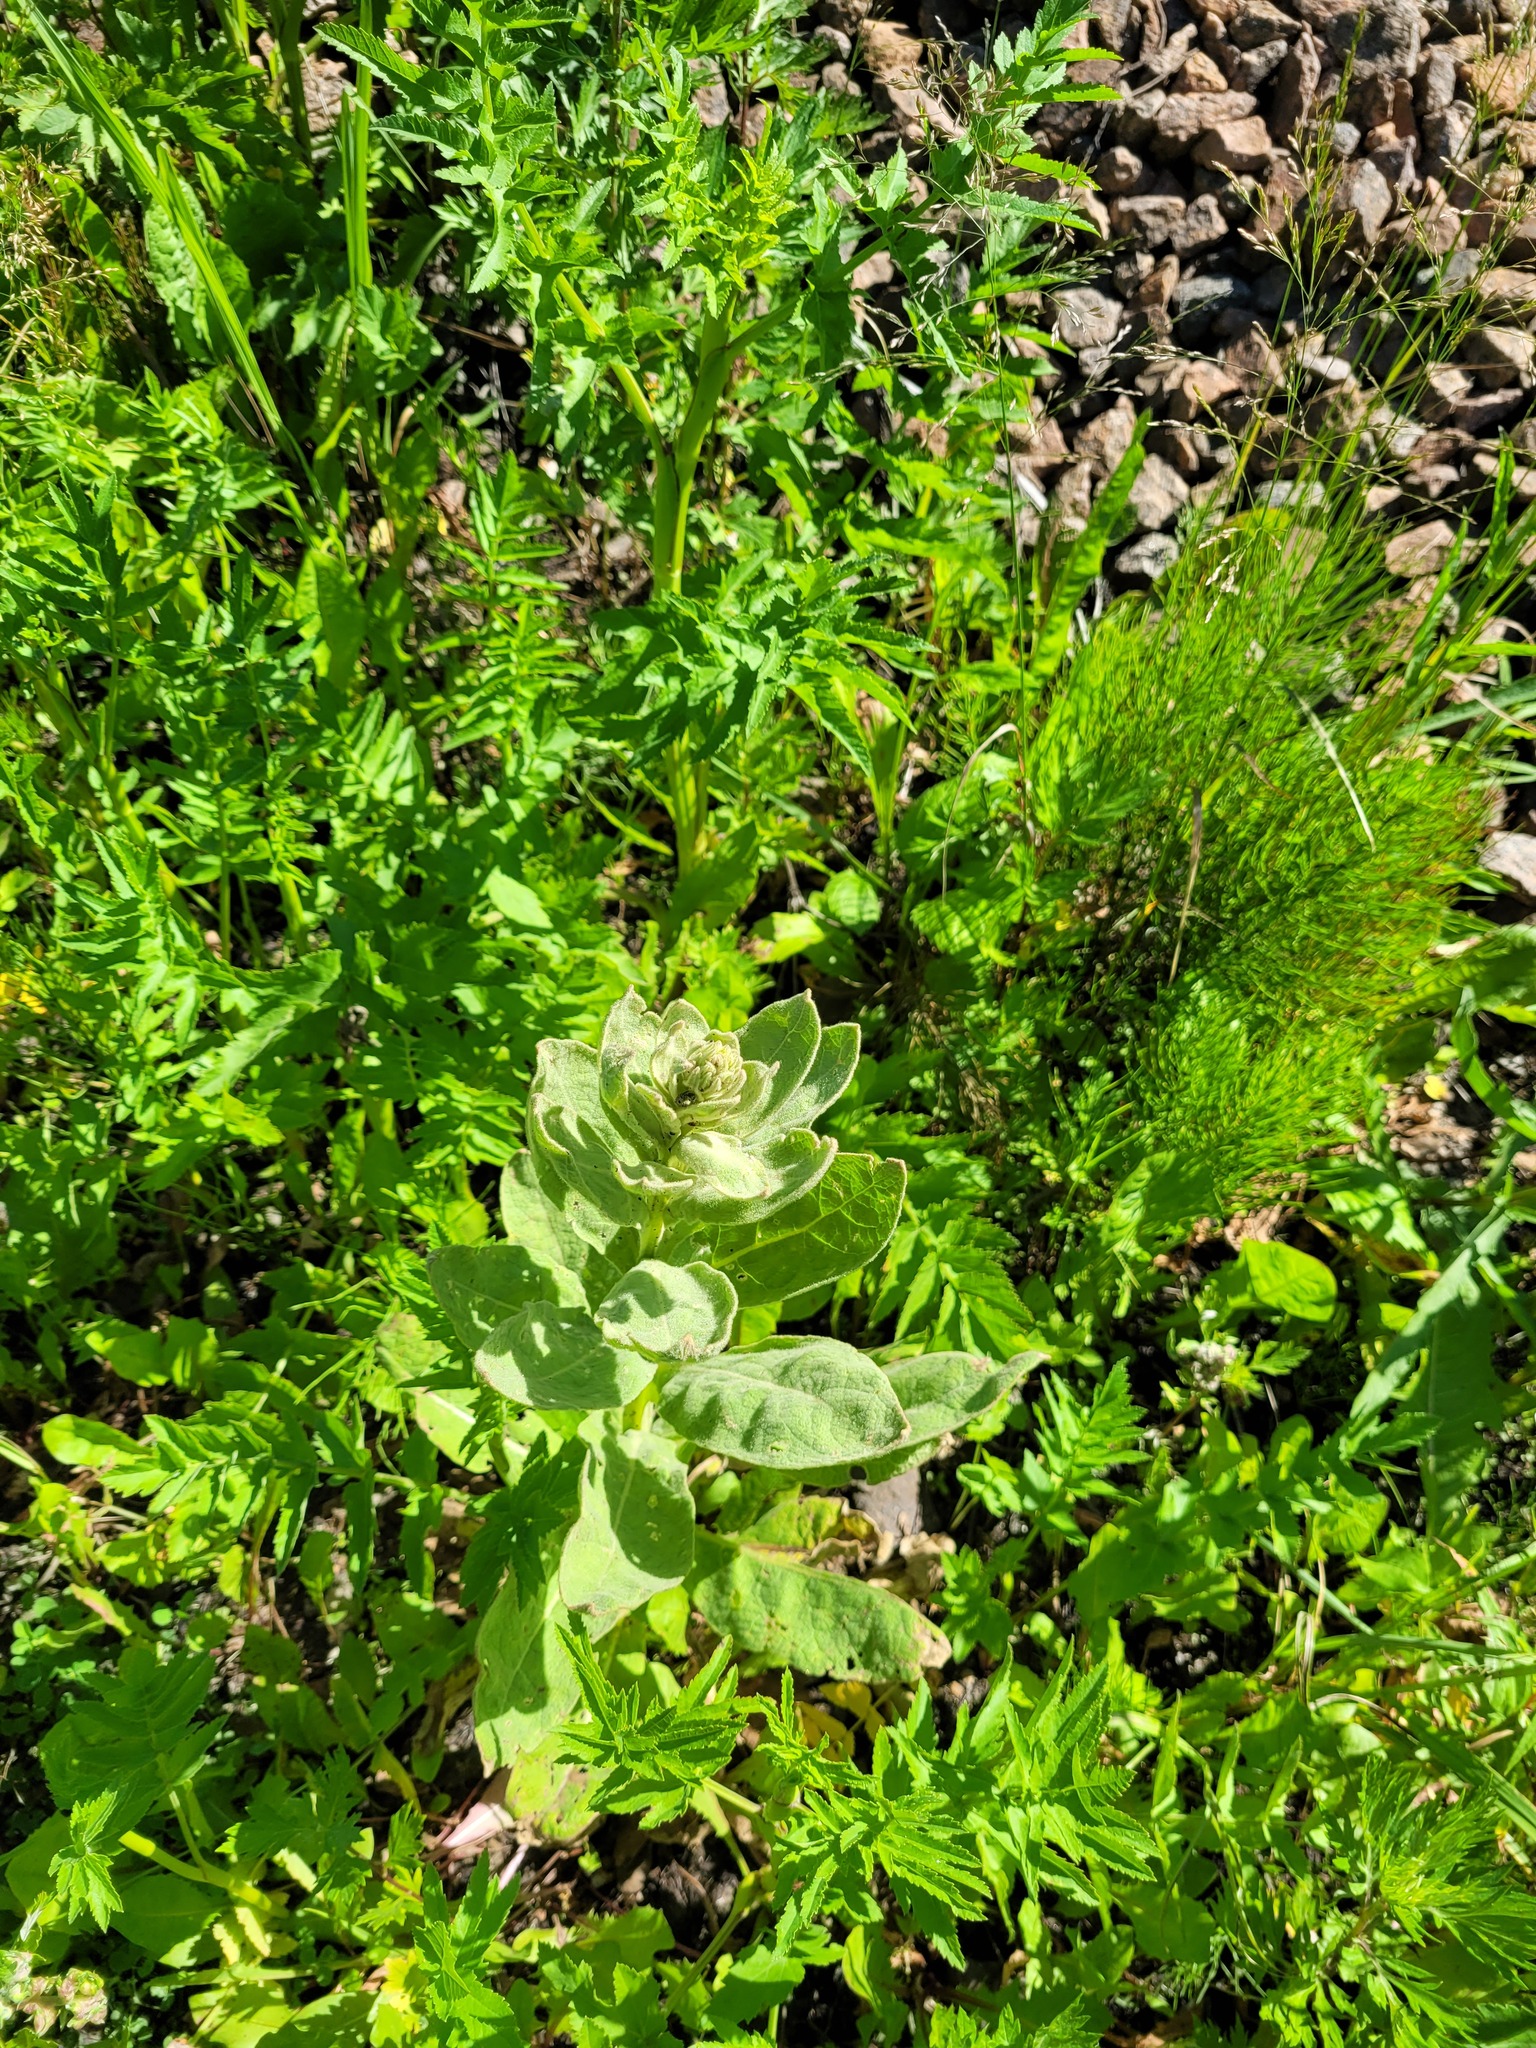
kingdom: Plantae
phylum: Tracheophyta
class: Magnoliopsida
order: Lamiales
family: Scrophulariaceae
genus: Verbascum
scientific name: Verbascum thapsus
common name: Common mullein
